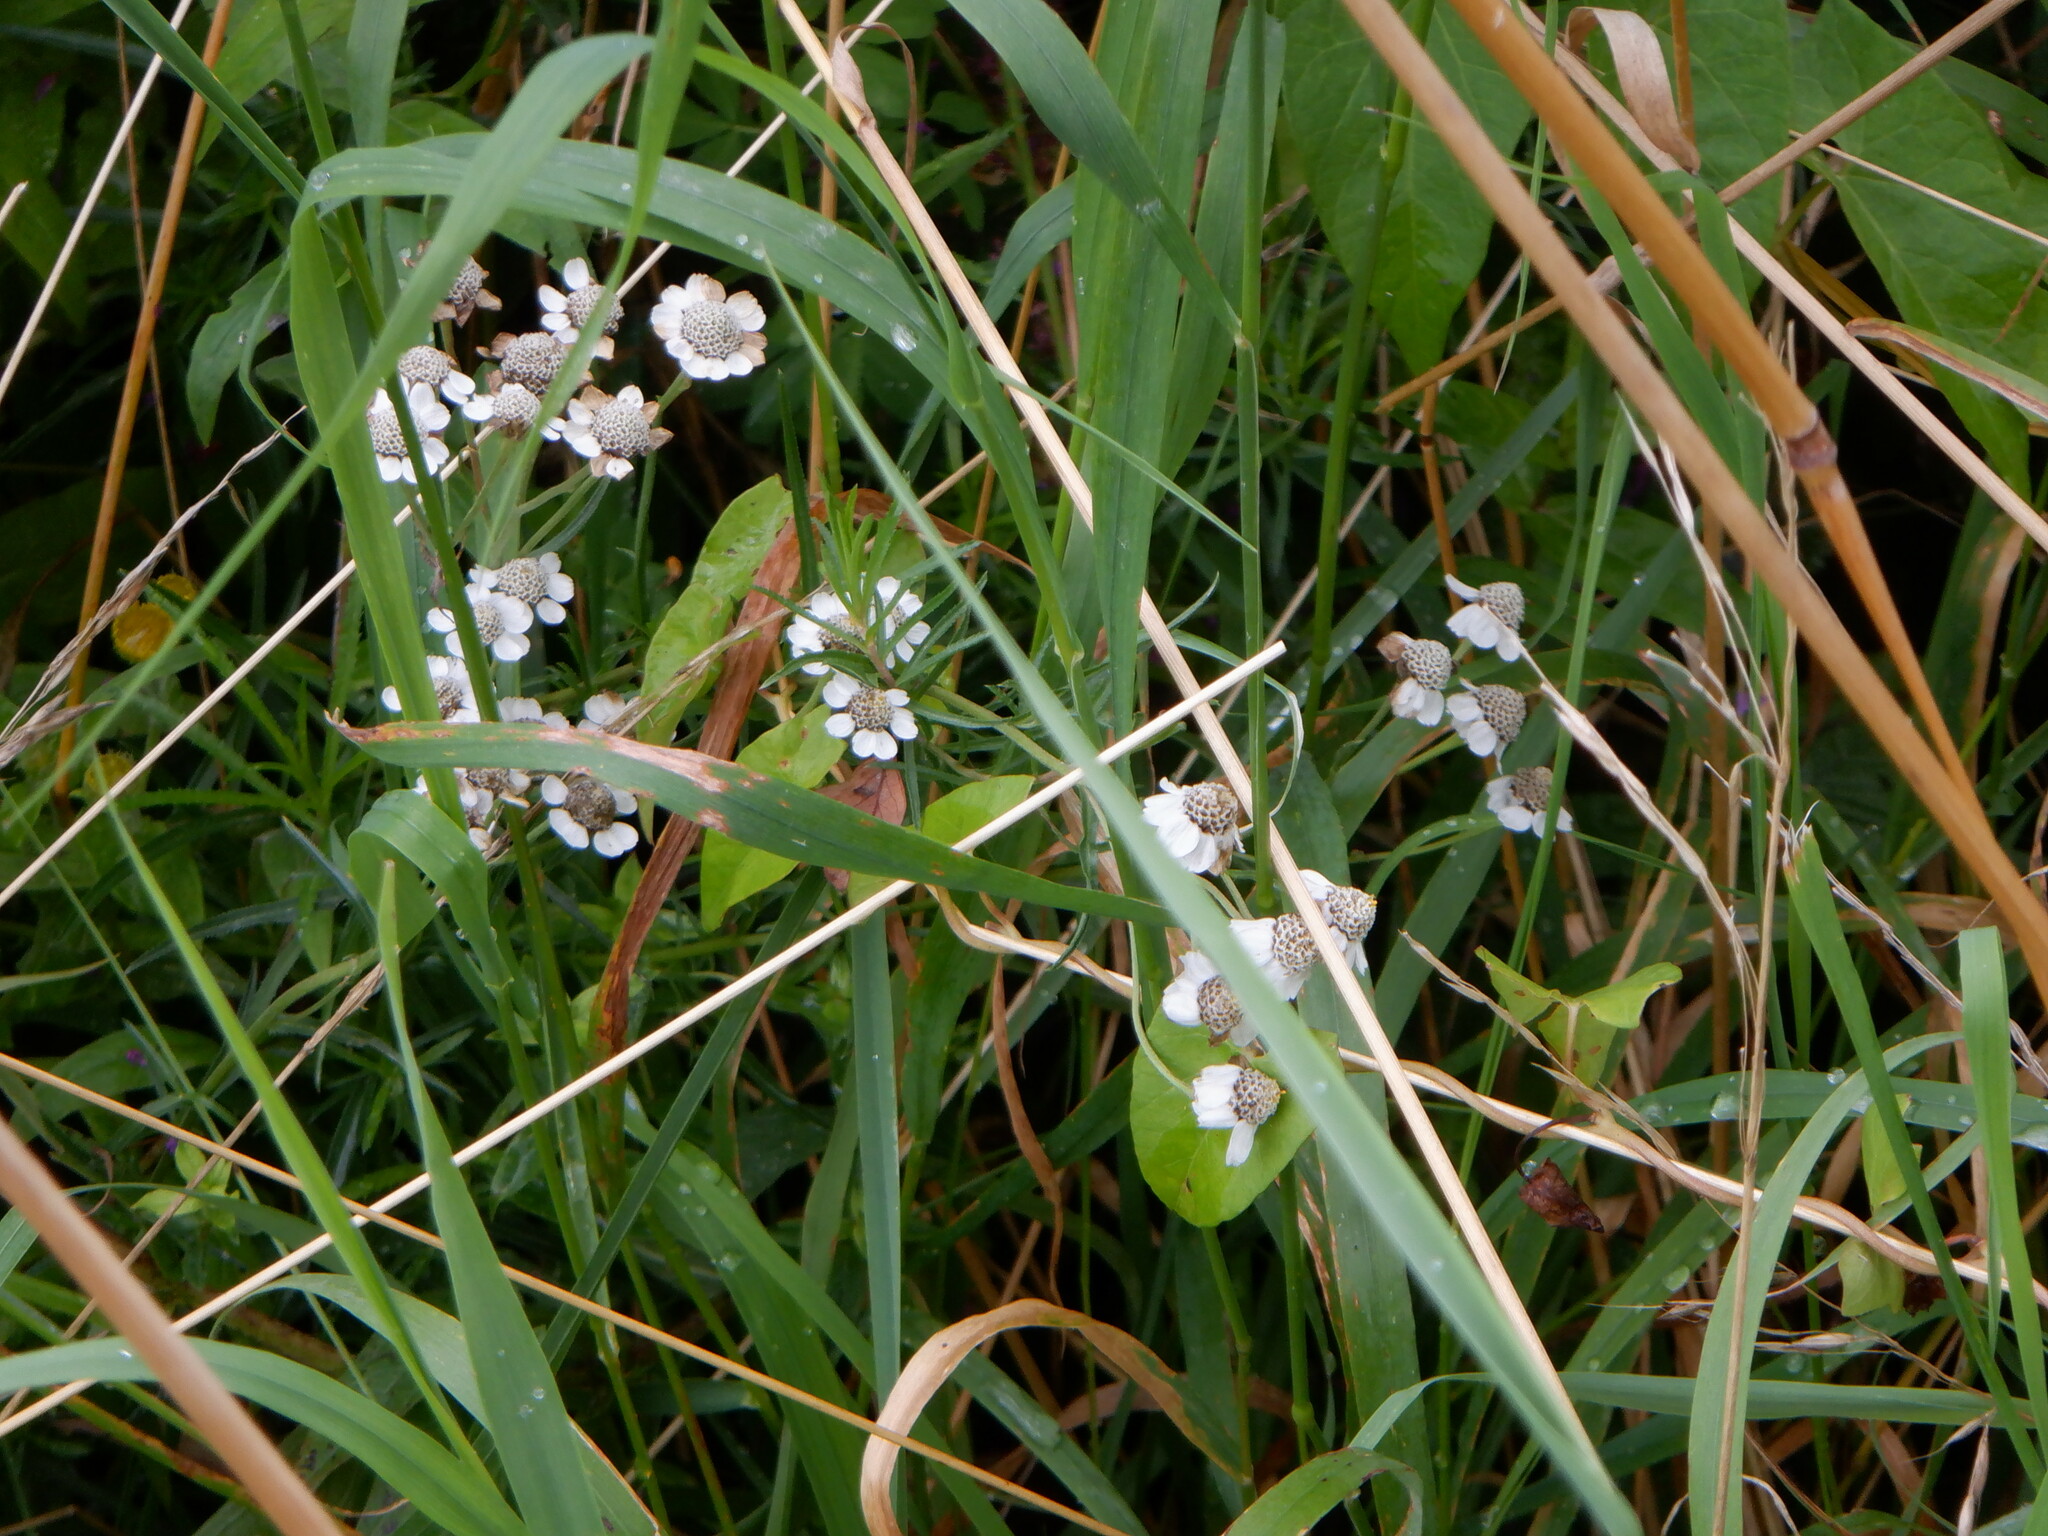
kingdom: Plantae
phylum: Tracheophyta
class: Magnoliopsida
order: Asterales
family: Asteraceae
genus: Achillea
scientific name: Achillea ptarmica
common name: Sneezeweed
